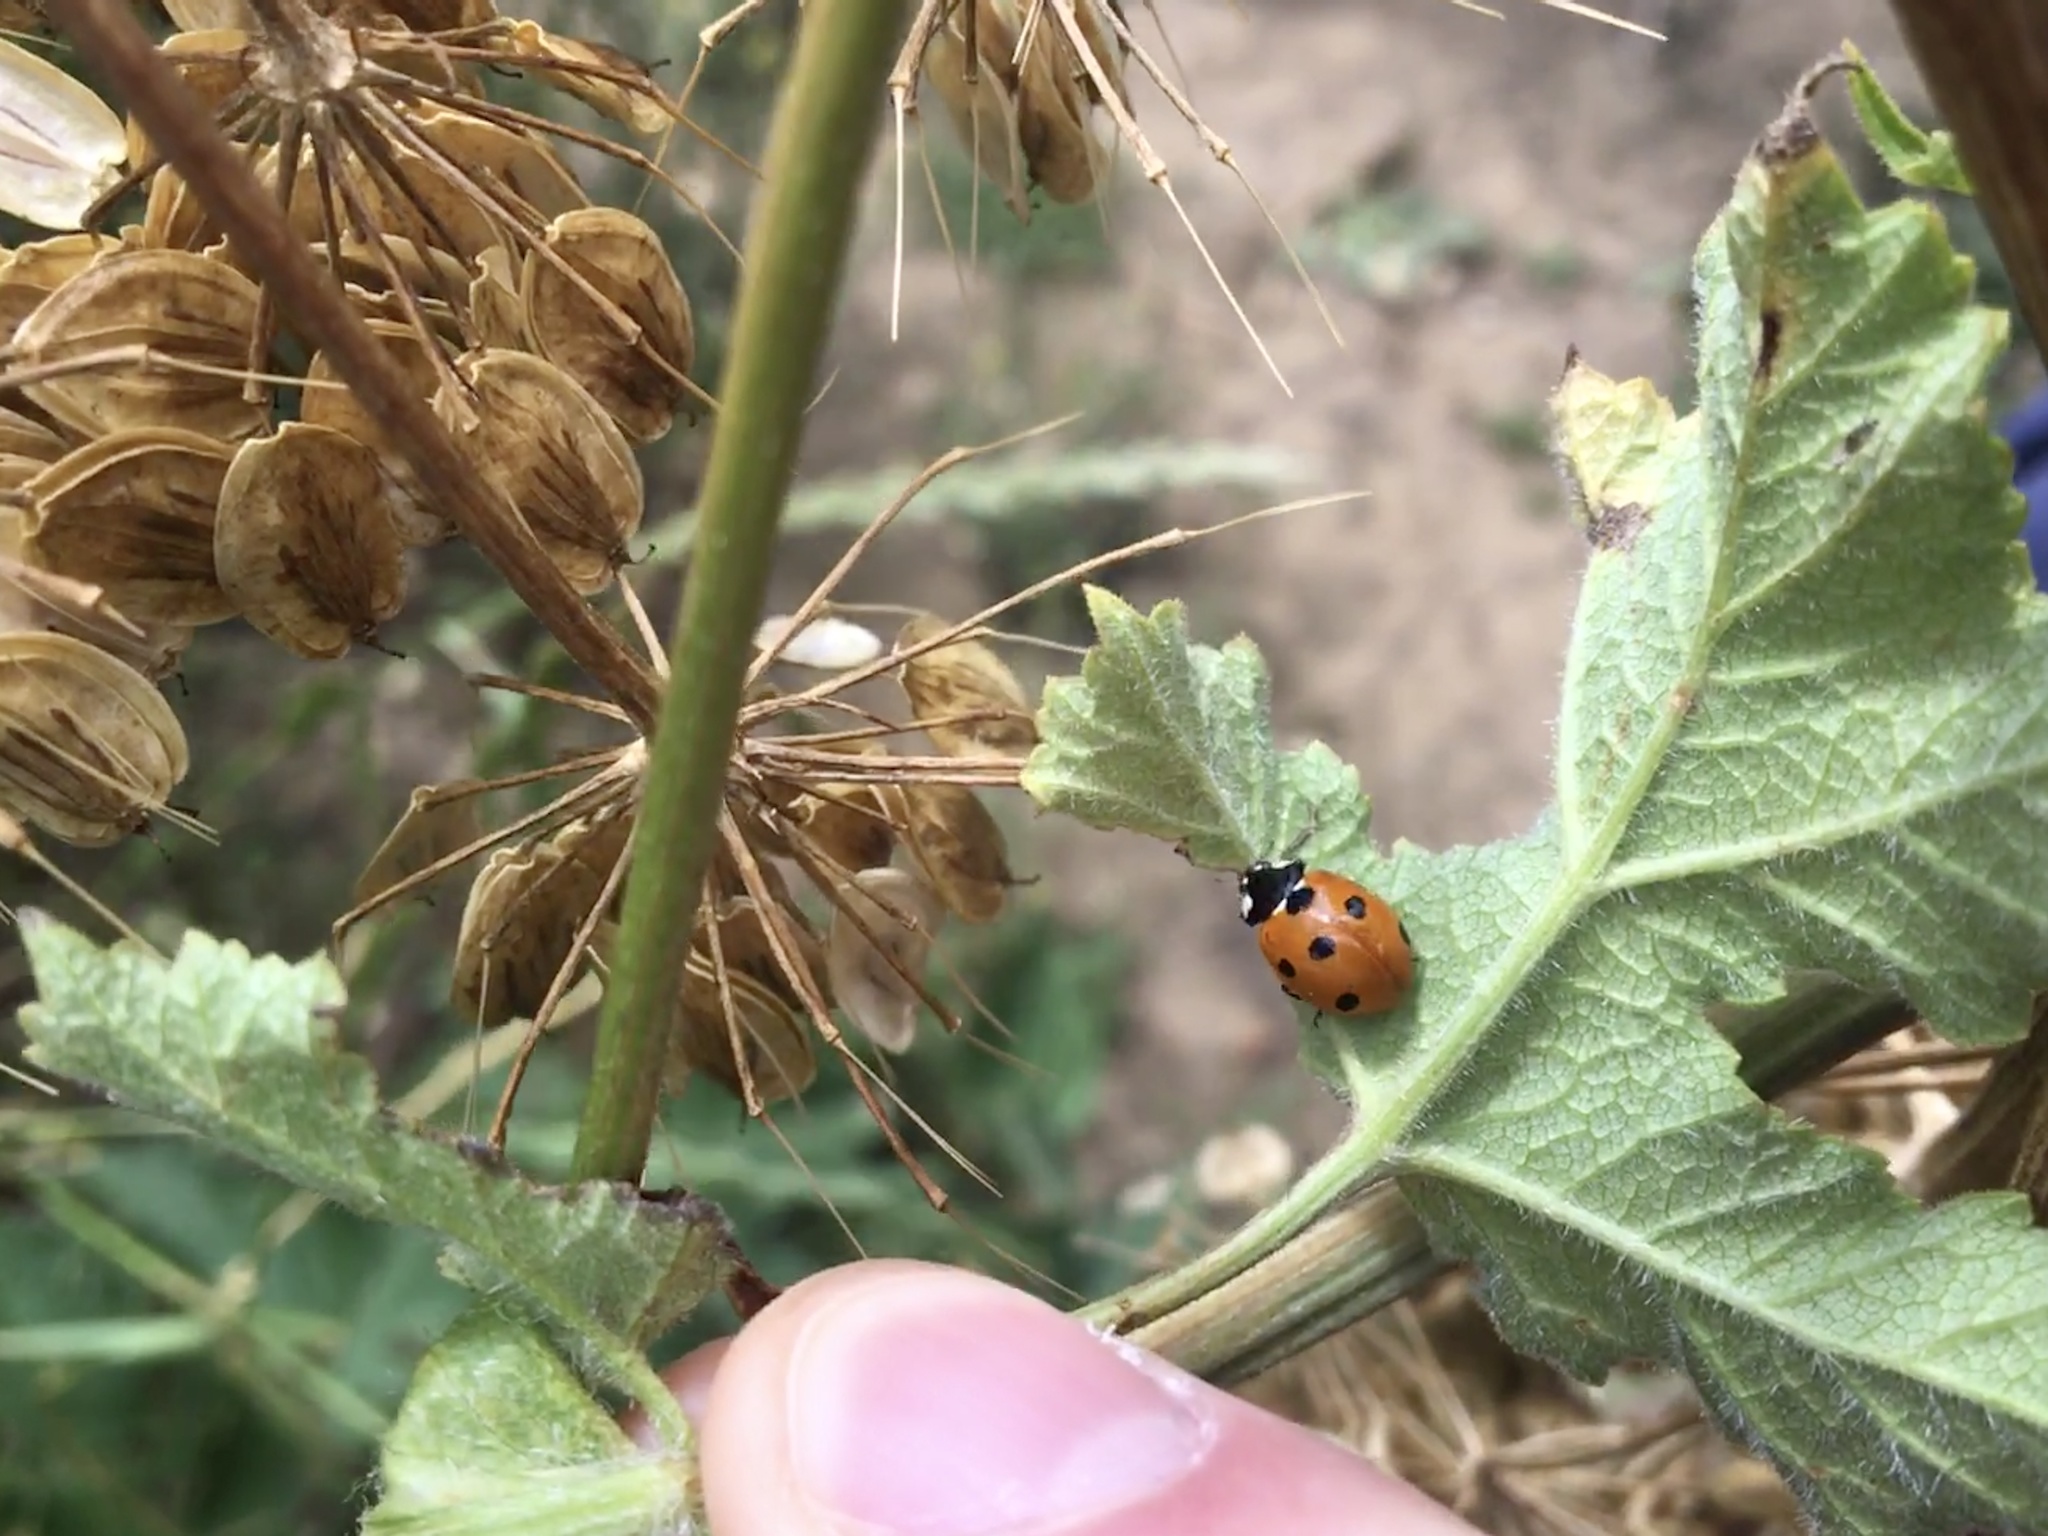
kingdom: Animalia
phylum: Arthropoda
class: Insecta
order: Coleoptera
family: Coccinellidae
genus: Coccinella
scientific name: Coccinella septempunctata
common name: Sevenspotted lady beetle
